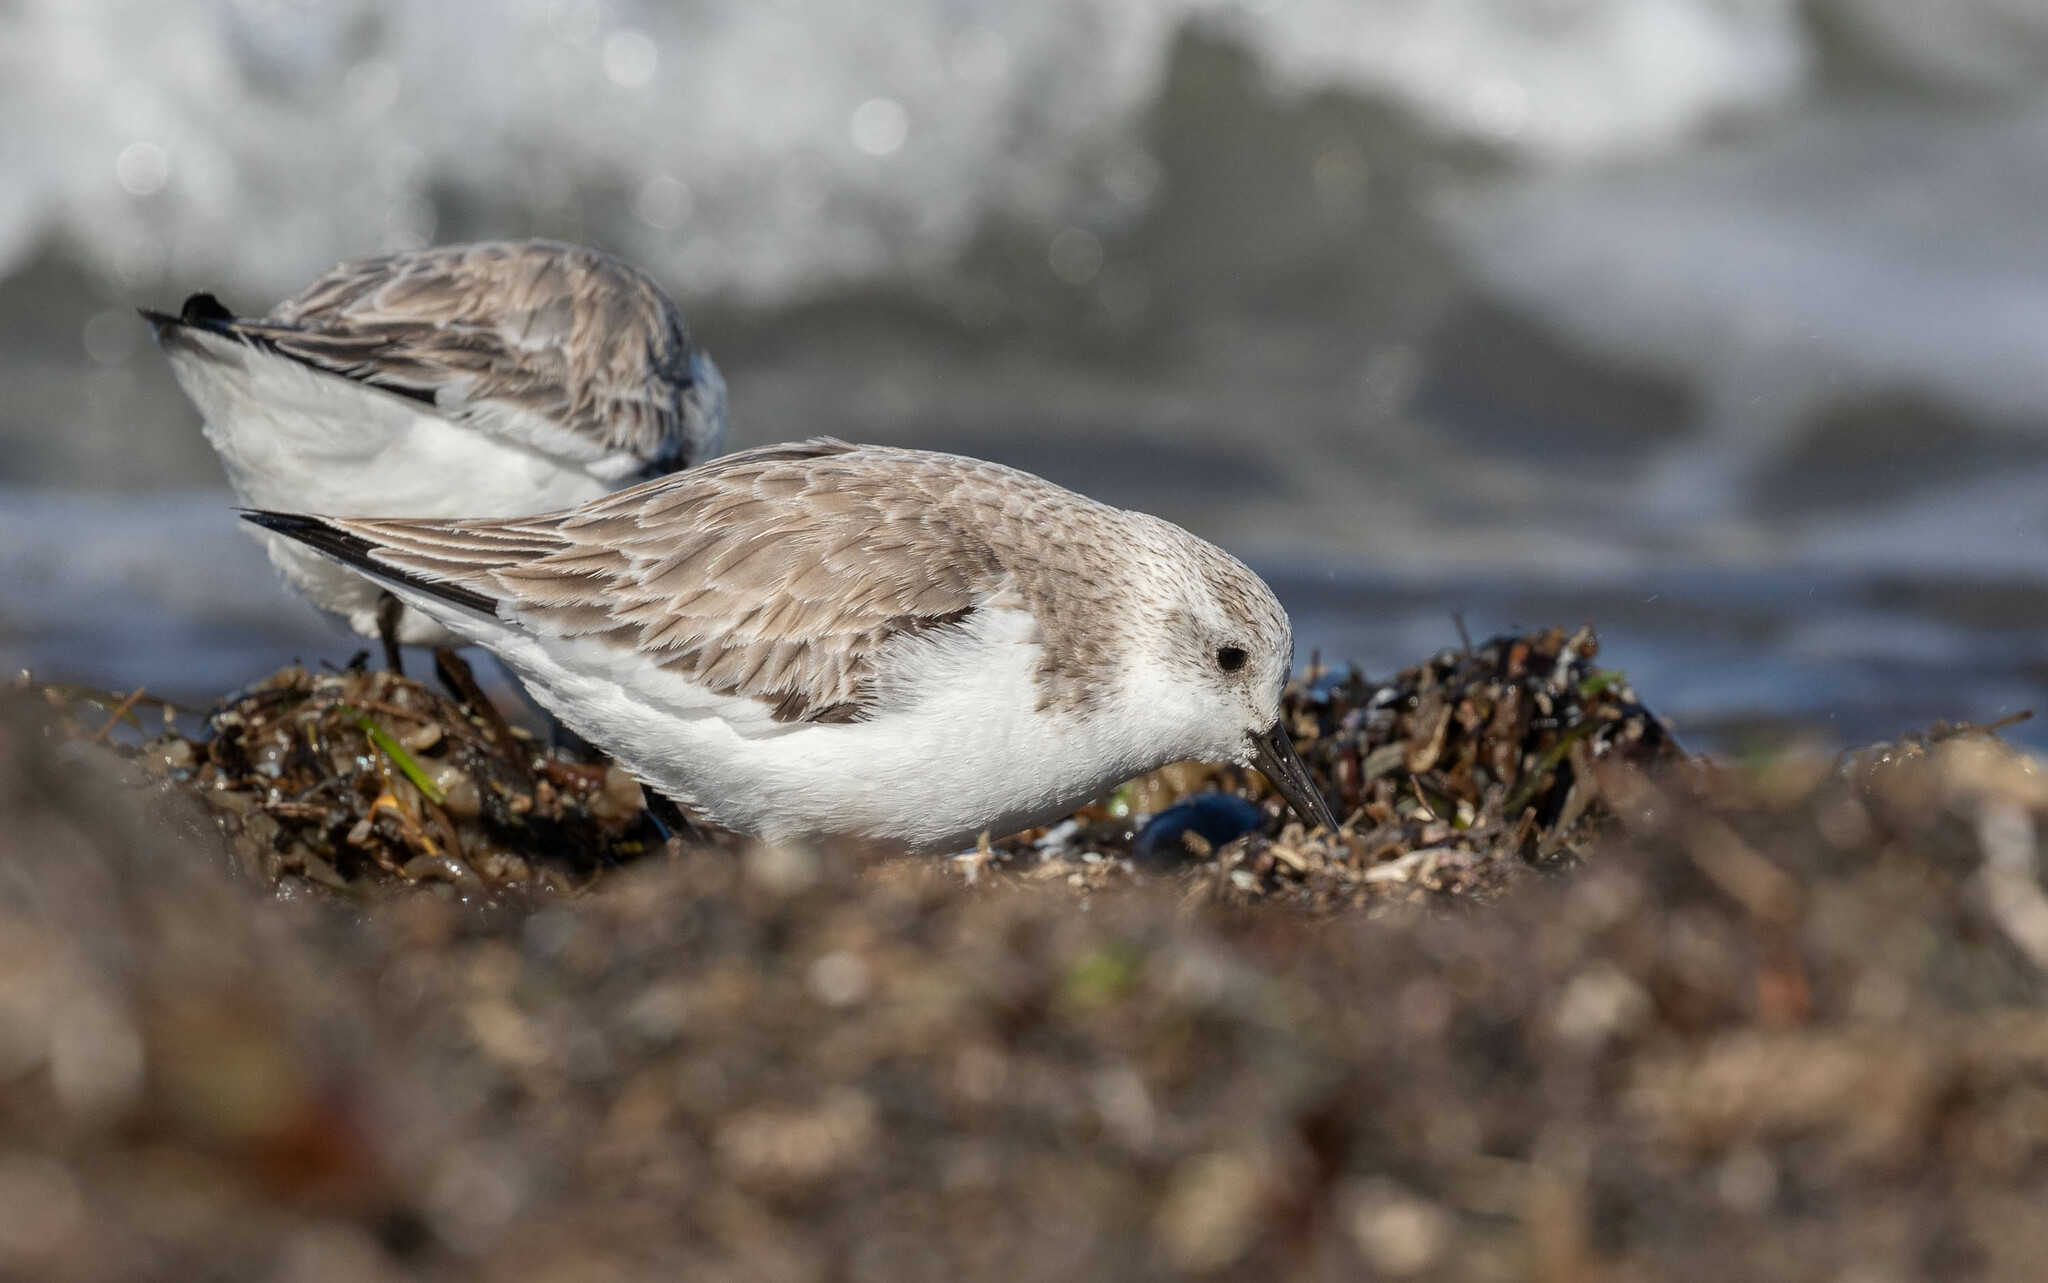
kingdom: Animalia
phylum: Chordata
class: Aves
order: Charadriiformes
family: Scolopacidae
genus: Calidris
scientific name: Calidris alba
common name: Sanderling
